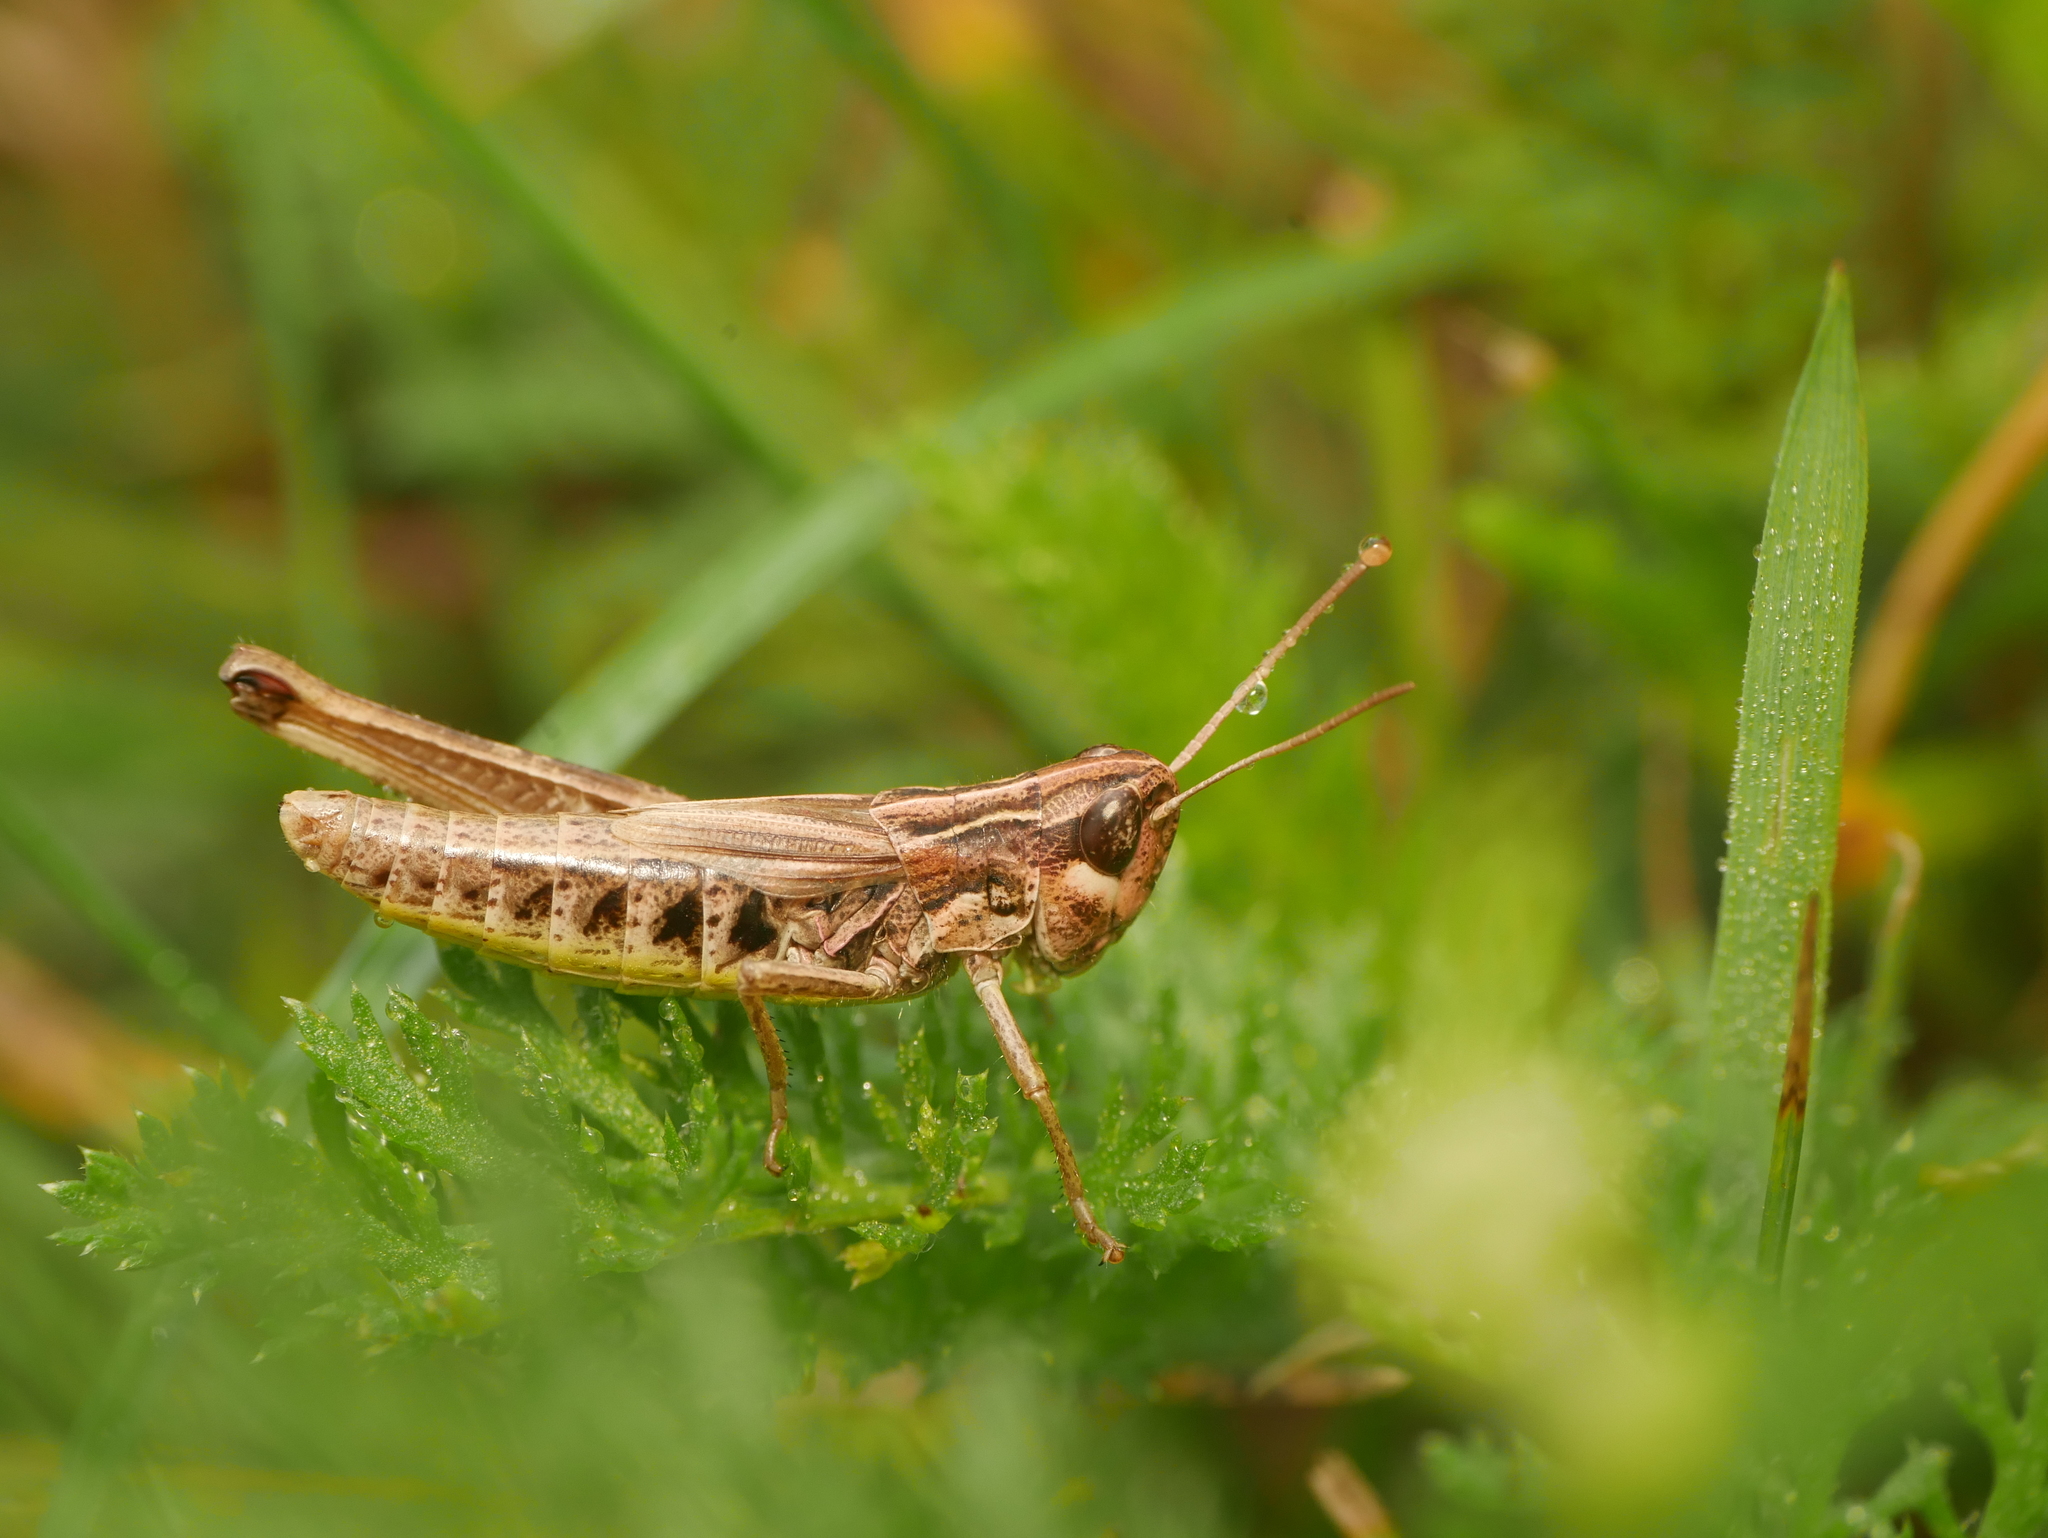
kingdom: Animalia
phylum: Arthropoda
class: Insecta
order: Orthoptera
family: Acrididae
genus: Pseudochorthippus
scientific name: Pseudochorthippus parallelus
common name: Meadow grasshopper
